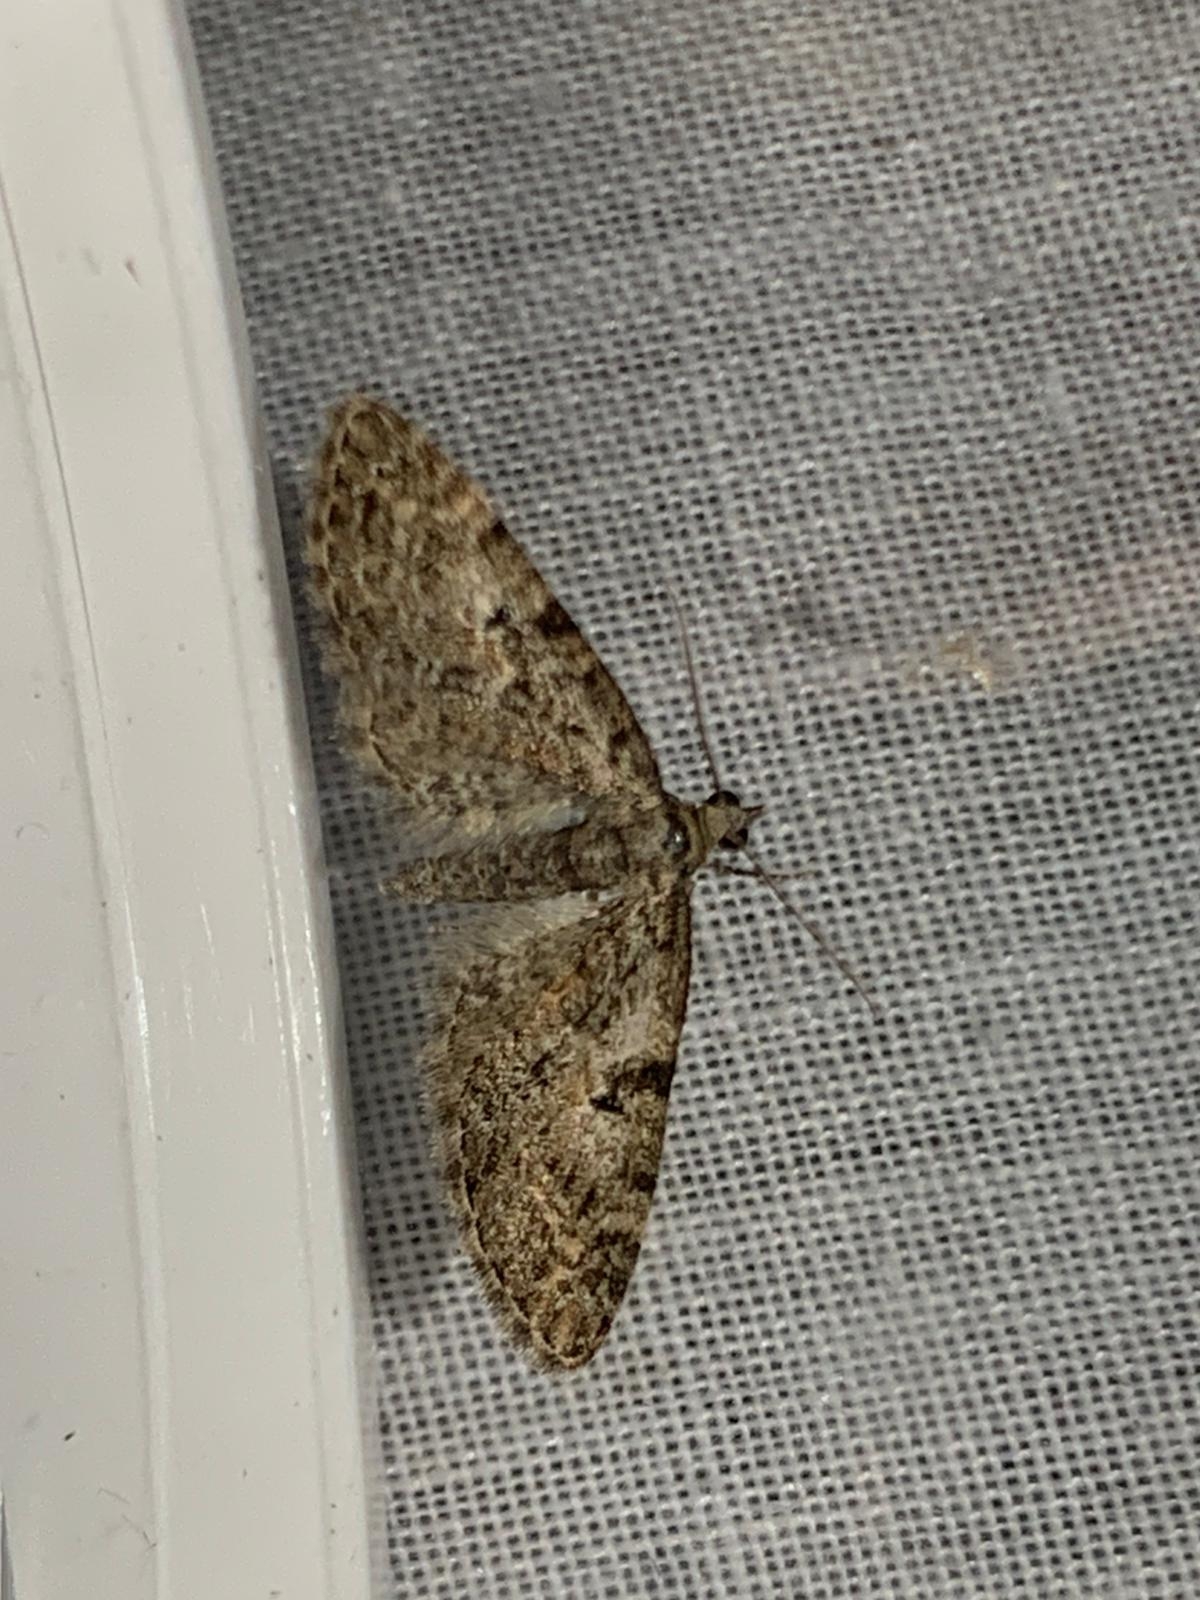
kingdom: Animalia
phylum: Arthropoda
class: Insecta
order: Lepidoptera
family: Geometridae
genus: Eupithecia
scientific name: Eupithecia abbreviata
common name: Brindled pug
